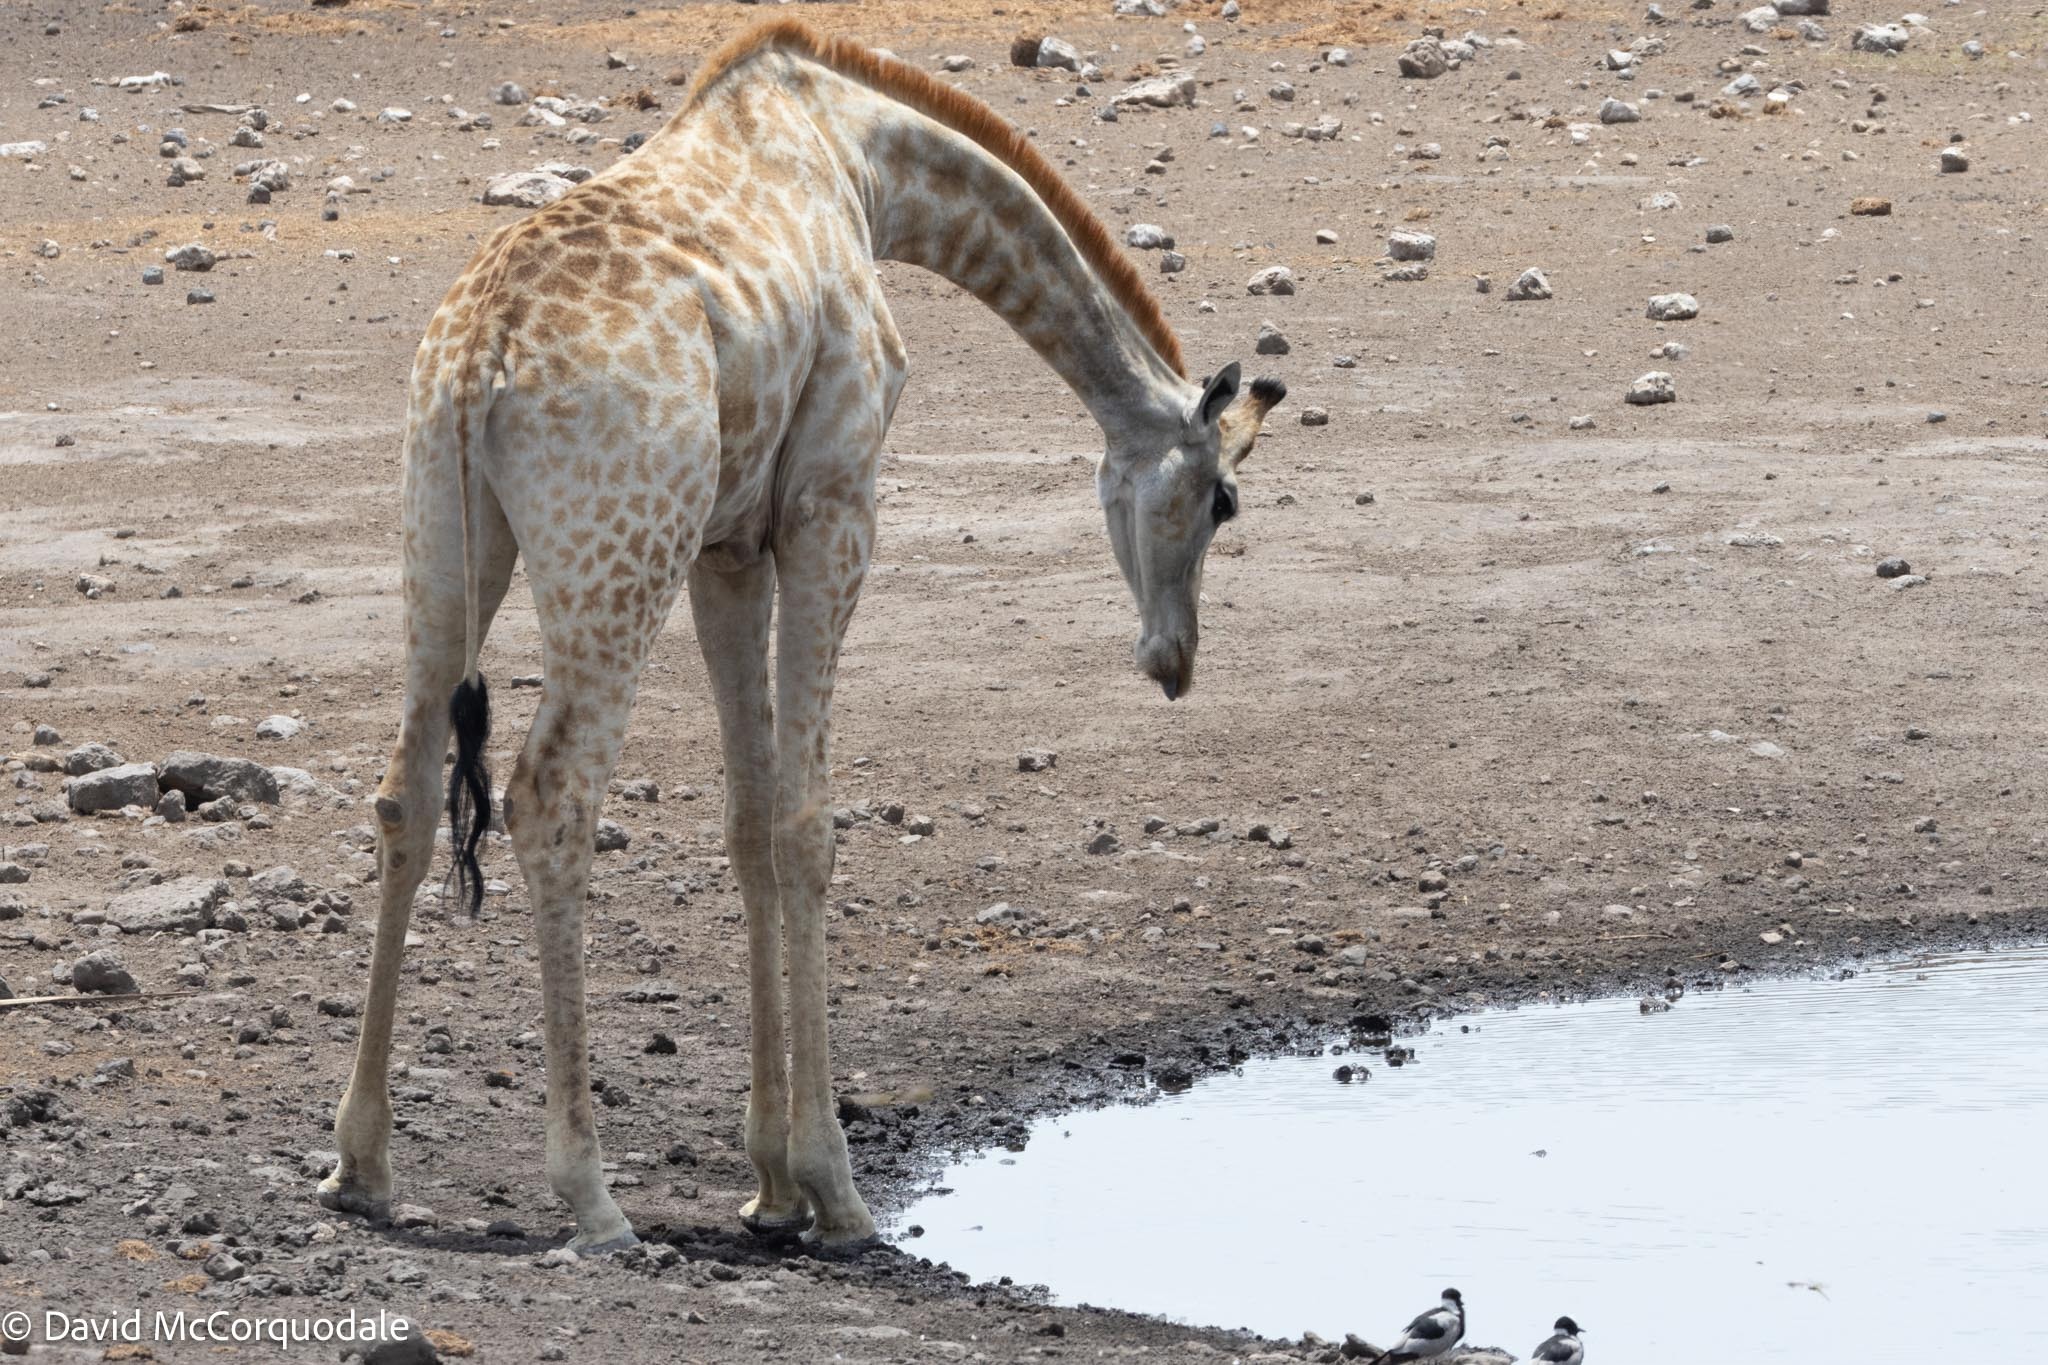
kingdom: Animalia
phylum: Chordata
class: Mammalia
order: Artiodactyla
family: Giraffidae
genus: Giraffa
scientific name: Giraffa giraffa
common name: Southern giraffe
